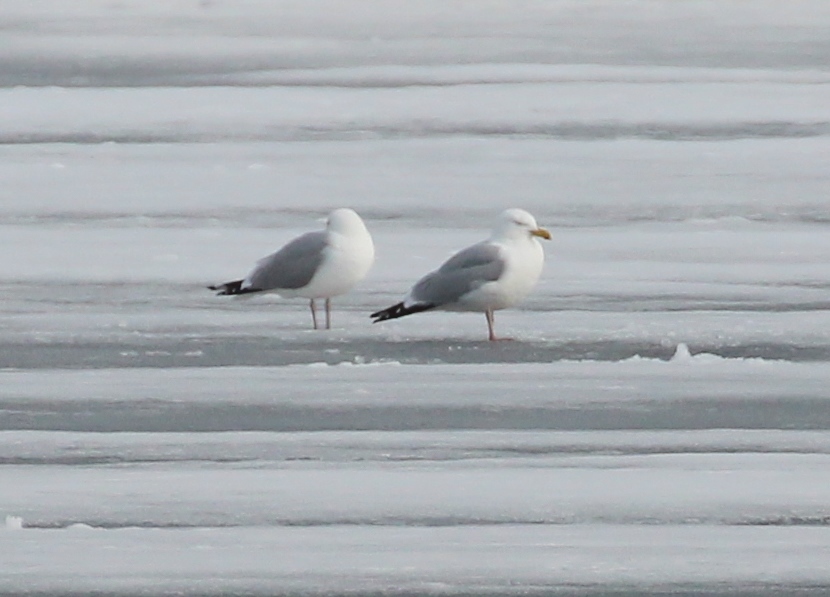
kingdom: Animalia
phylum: Chordata
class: Aves
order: Charadriiformes
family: Laridae
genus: Larus
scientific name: Larus argentatus
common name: Herring gull
